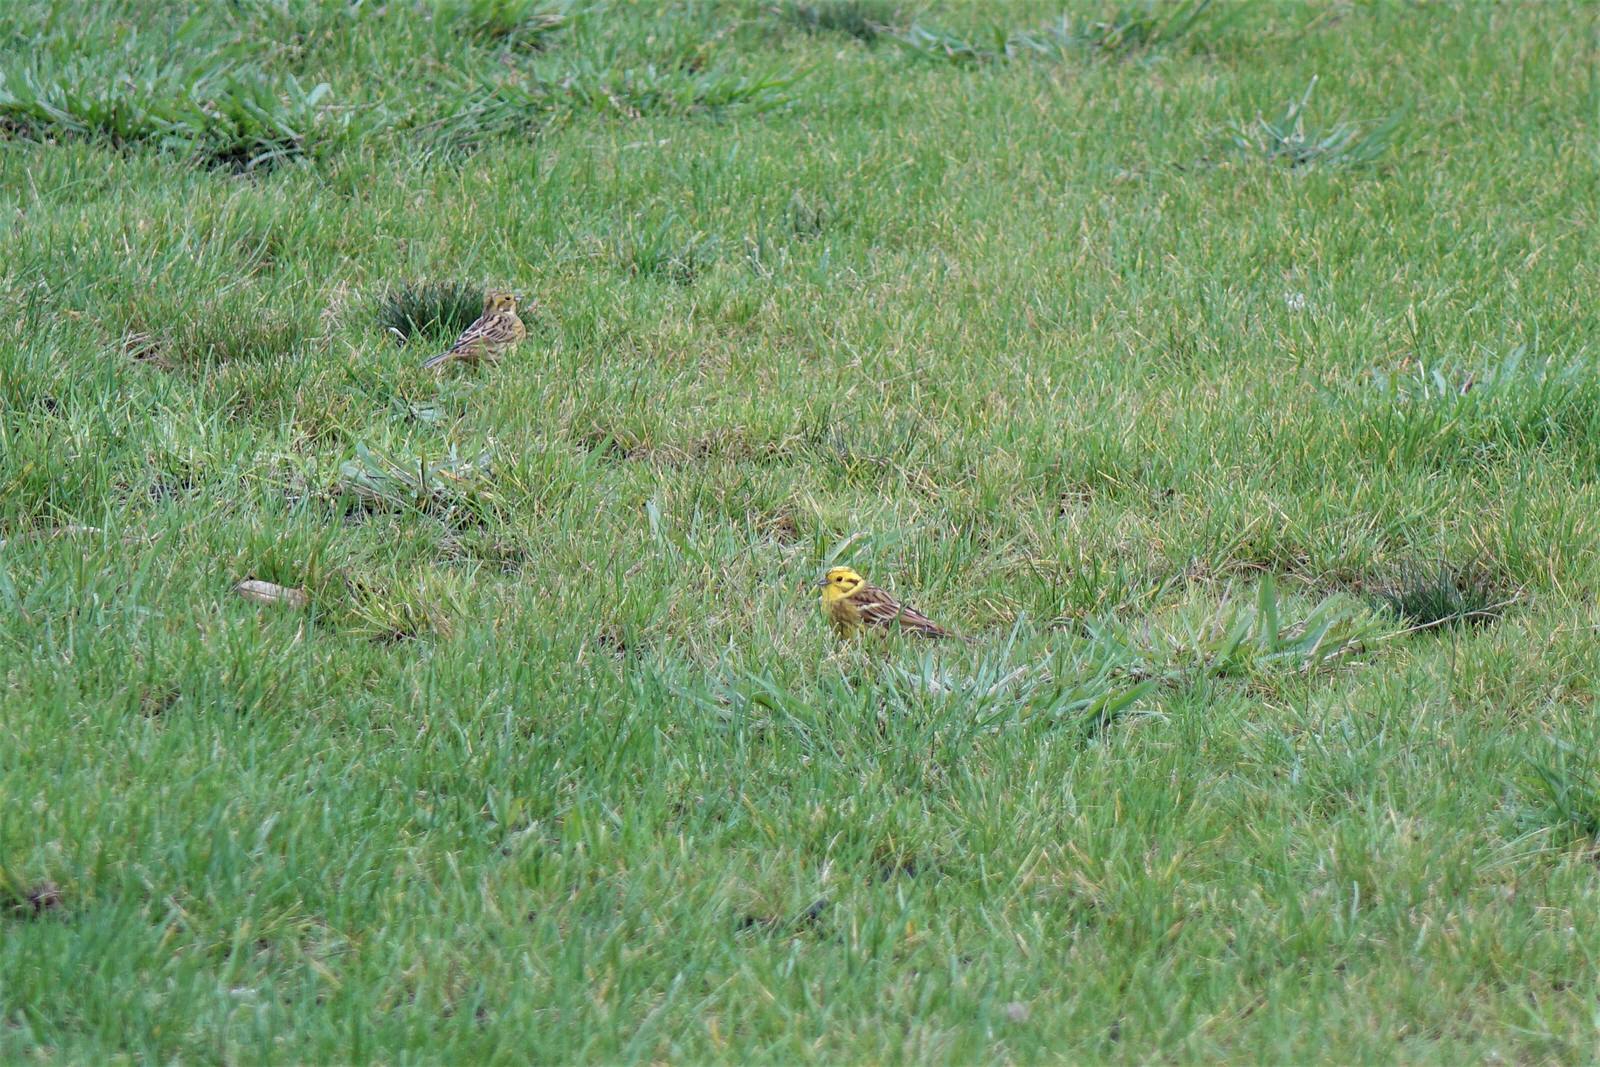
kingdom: Animalia
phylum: Chordata
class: Aves
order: Passeriformes
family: Emberizidae
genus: Emberiza
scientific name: Emberiza citrinella
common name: Yellowhammer
